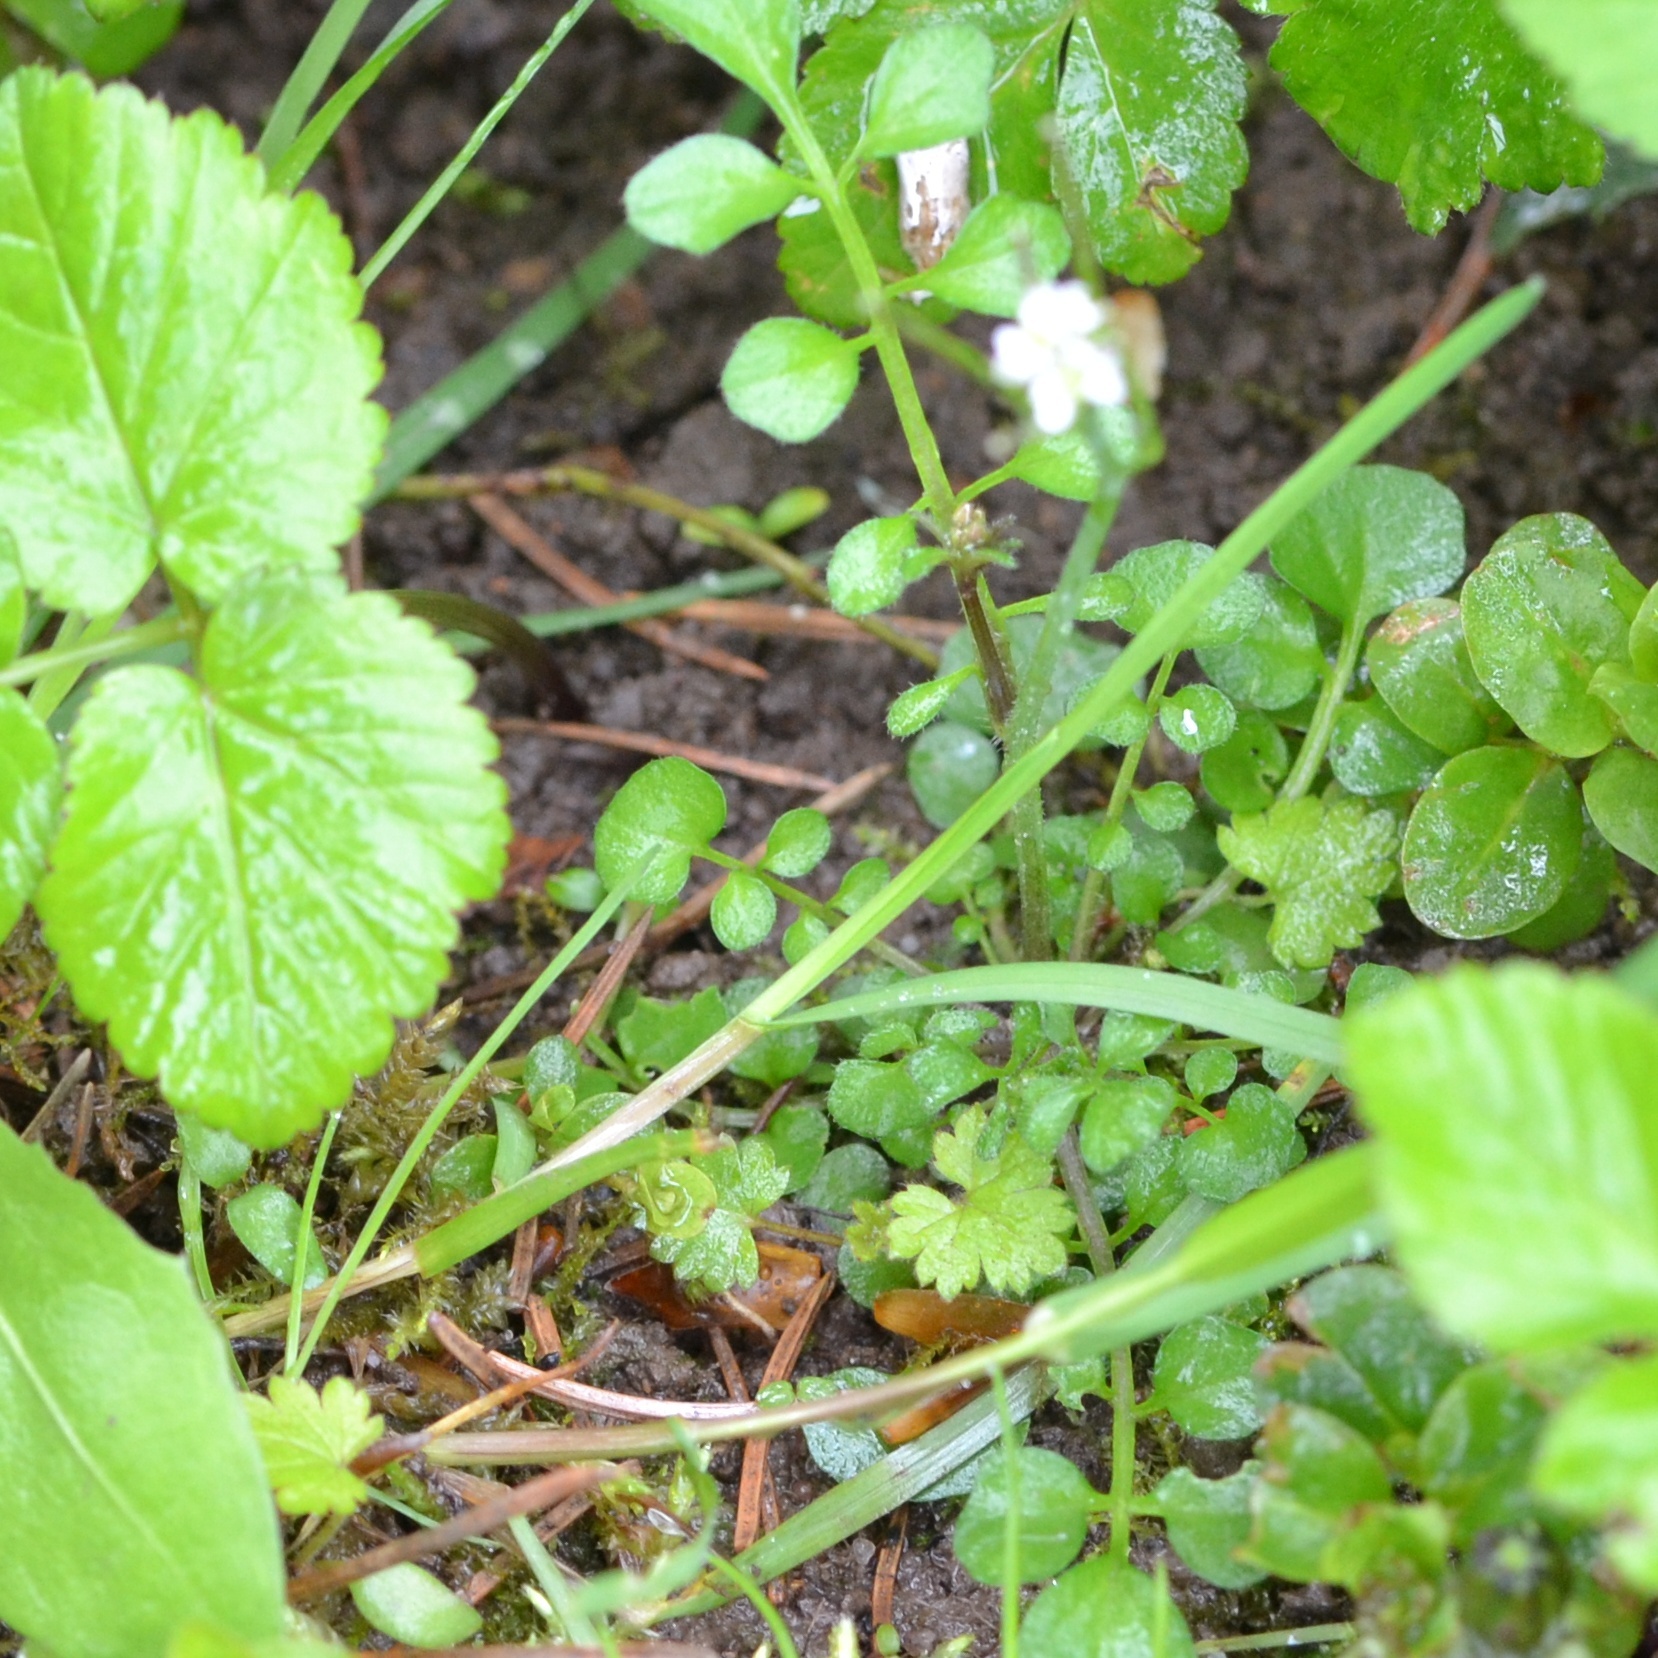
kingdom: Plantae
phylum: Tracheophyta
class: Magnoliopsida
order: Brassicales
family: Brassicaceae
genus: Cardamine
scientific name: Cardamine hirsuta
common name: Hairy bittercress
